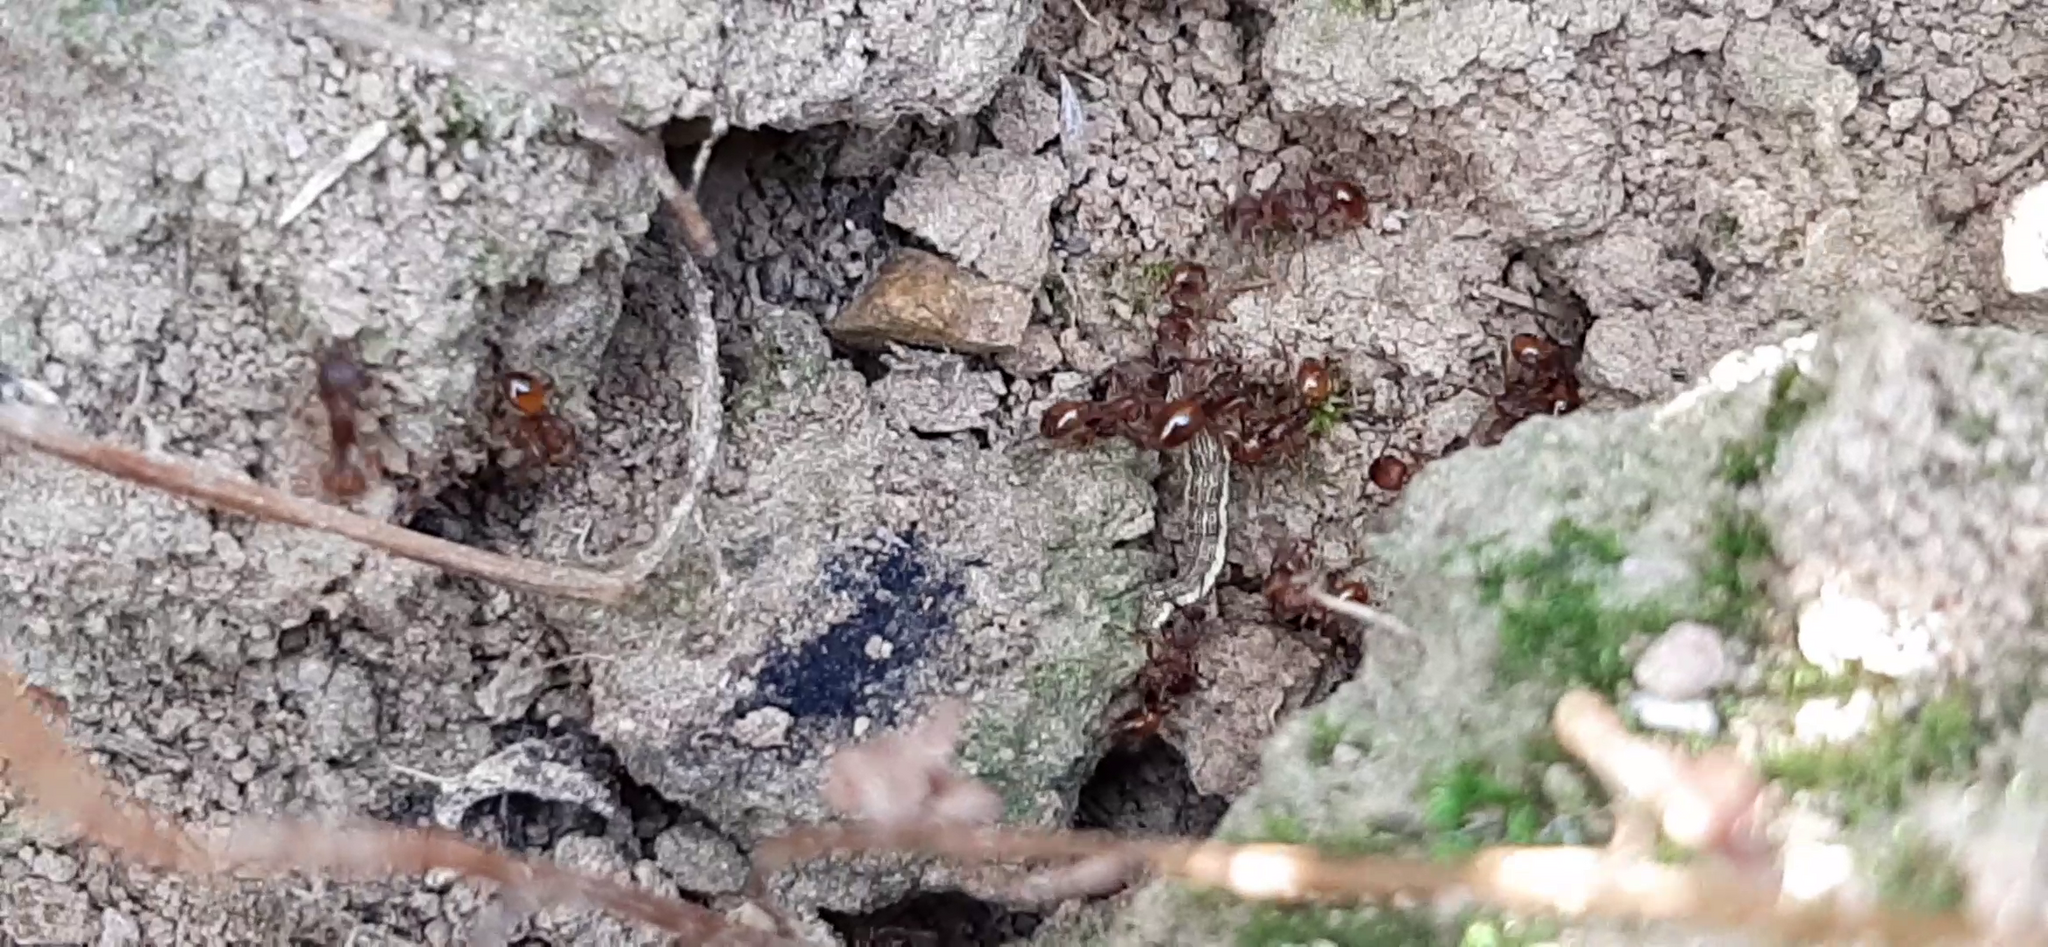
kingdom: Animalia
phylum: Arthropoda
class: Insecta
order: Hymenoptera
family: Formicidae
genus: Manica
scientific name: Manica rubida
